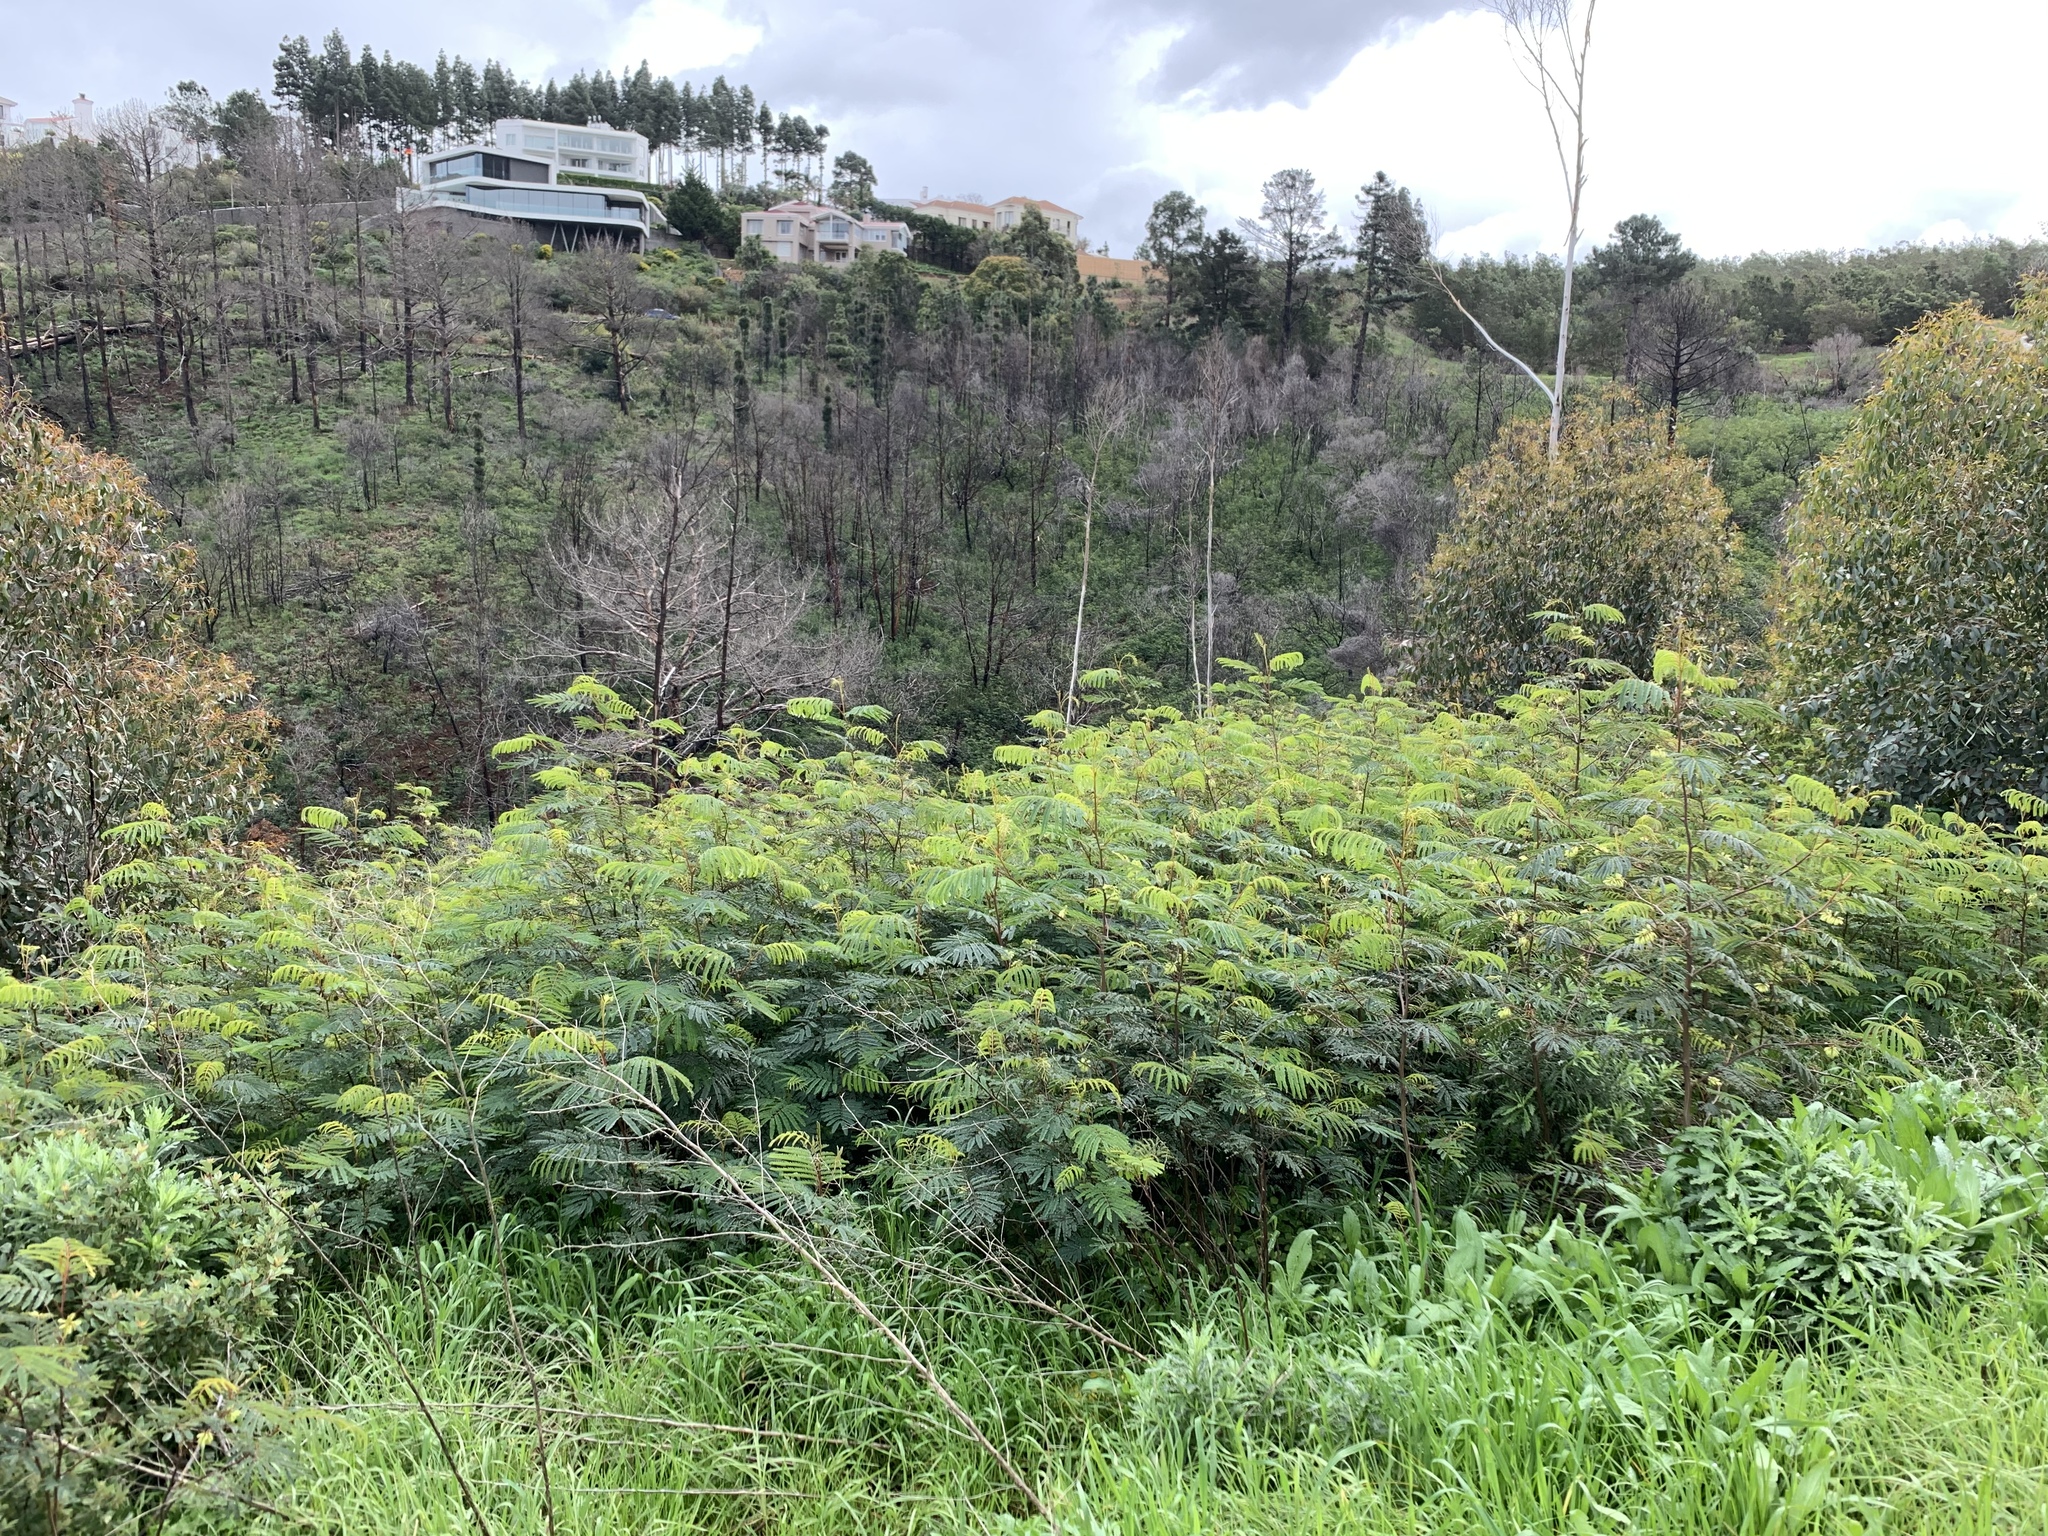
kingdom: Plantae
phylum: Tracheophyta
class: Magnoliopsida
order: Fabales
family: Fabaceae
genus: Paraserianthes
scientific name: Paraserianthes lophantha
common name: Plume albizia
